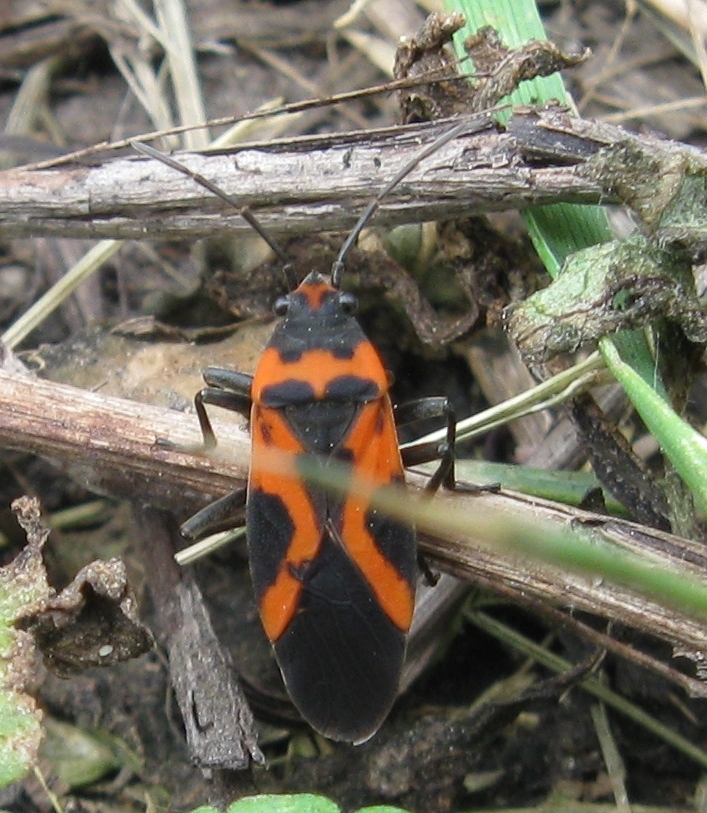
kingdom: Animalia
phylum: Arthropoda
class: Insecta
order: Hemiptera
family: Lygaeidae
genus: Lygaeus
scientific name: Lygaeus turcicus
